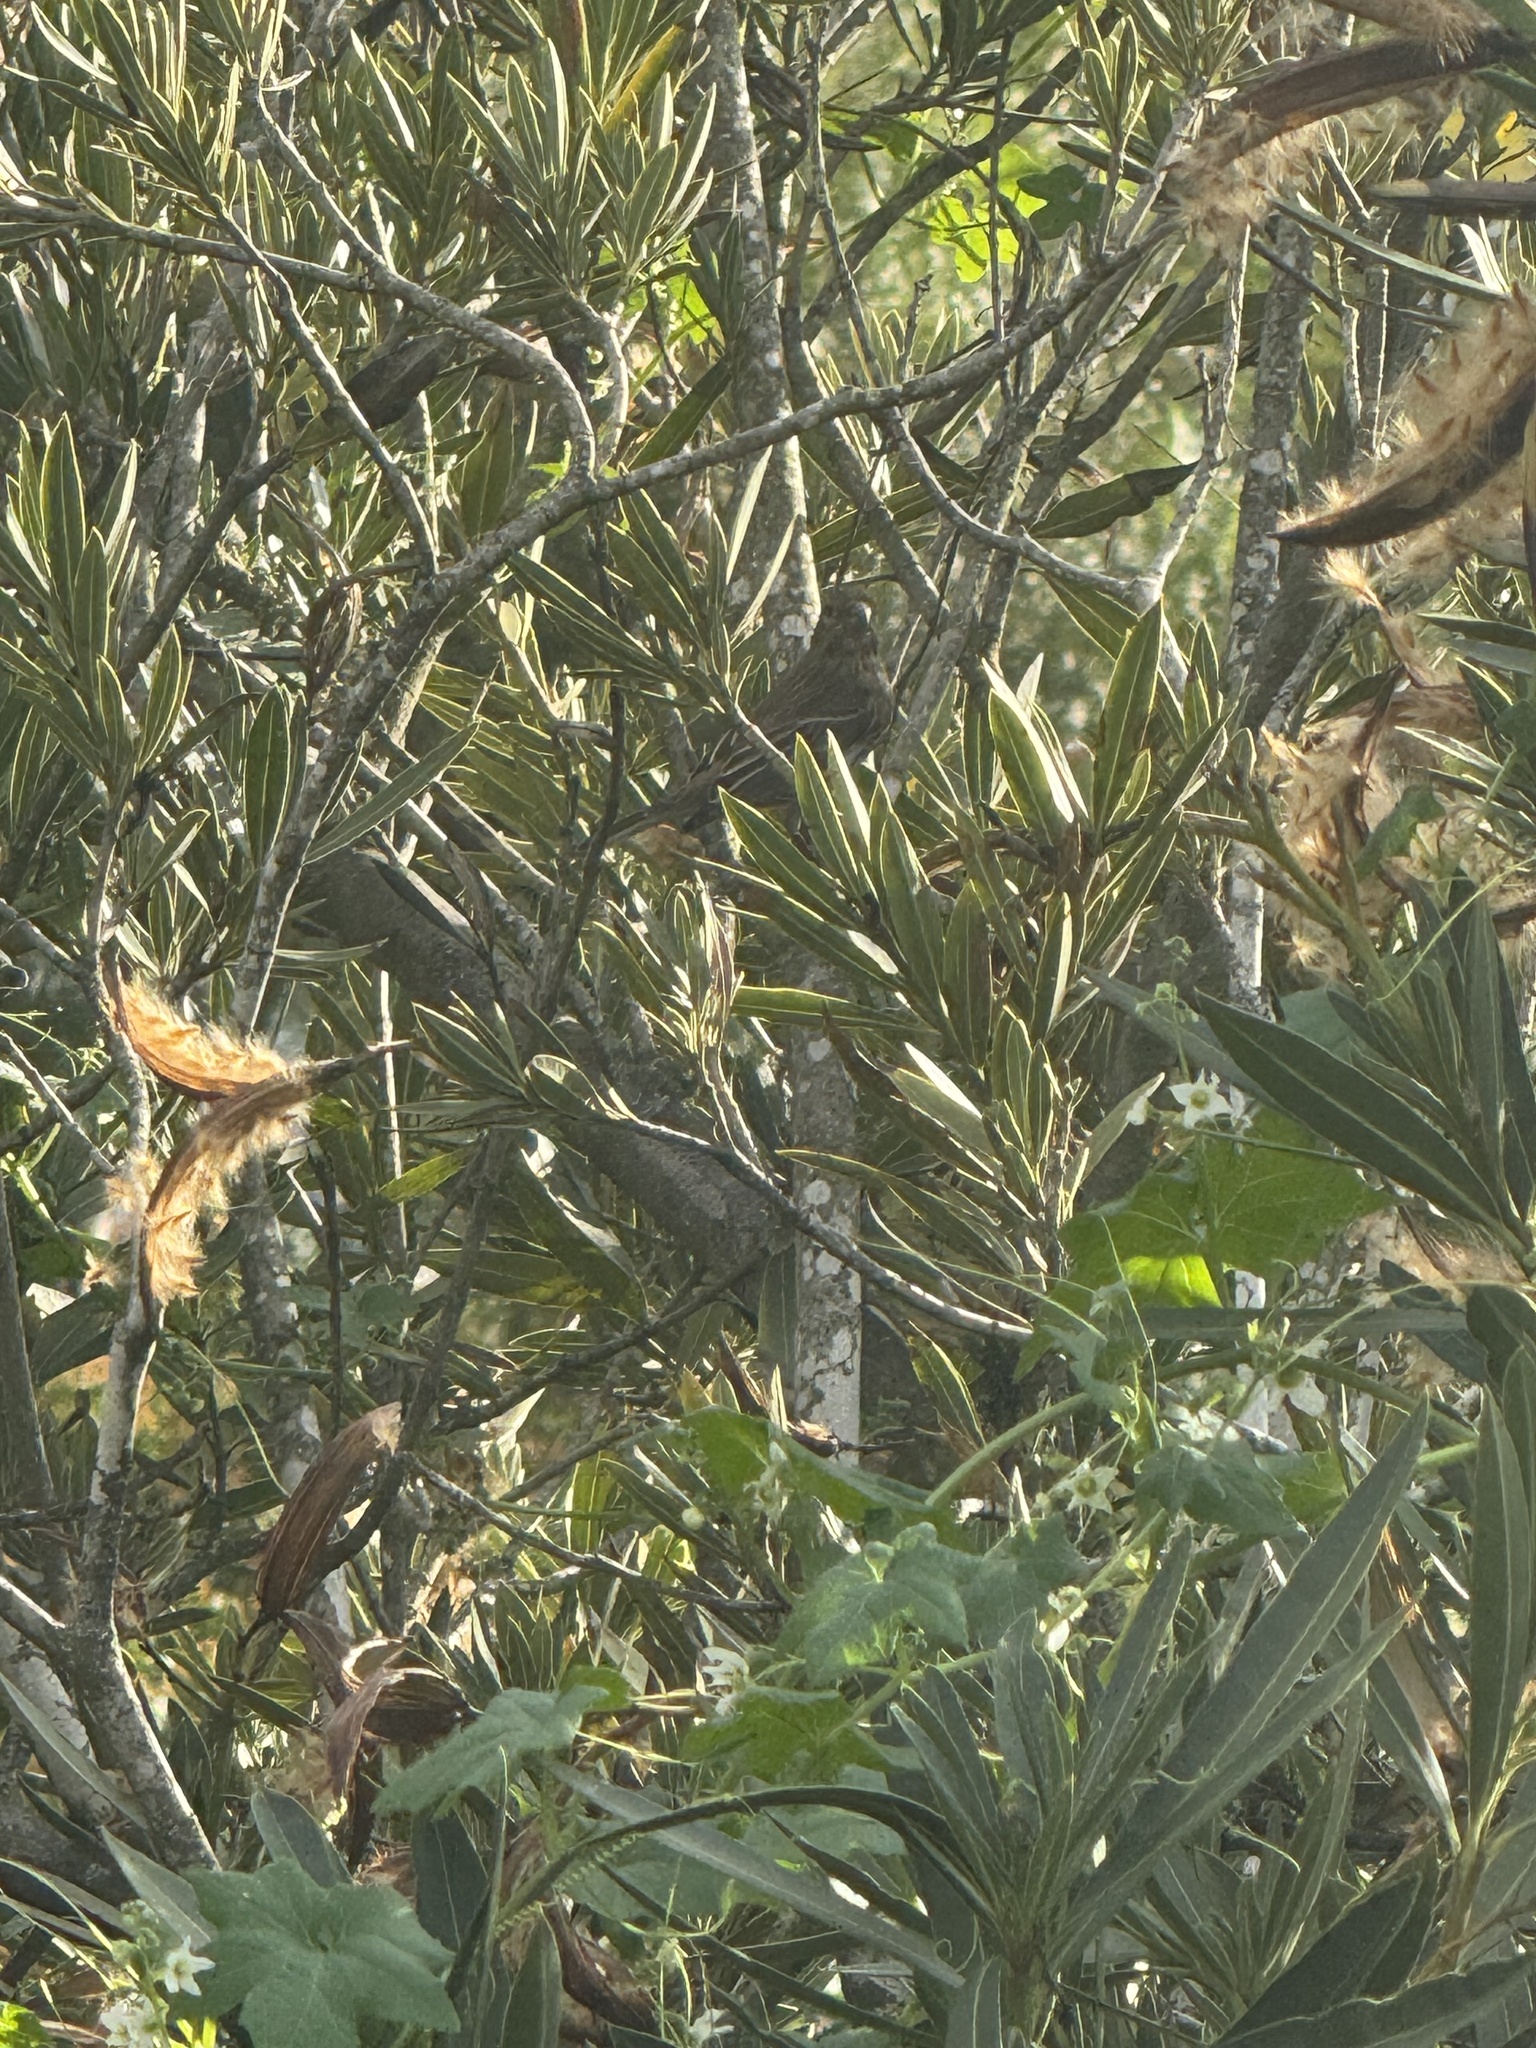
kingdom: Animalia
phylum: Chordata
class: Aves
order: Passeriformes
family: Fringillidae
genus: Haemorhous
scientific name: Haemorhous mexicanus
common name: House finch
